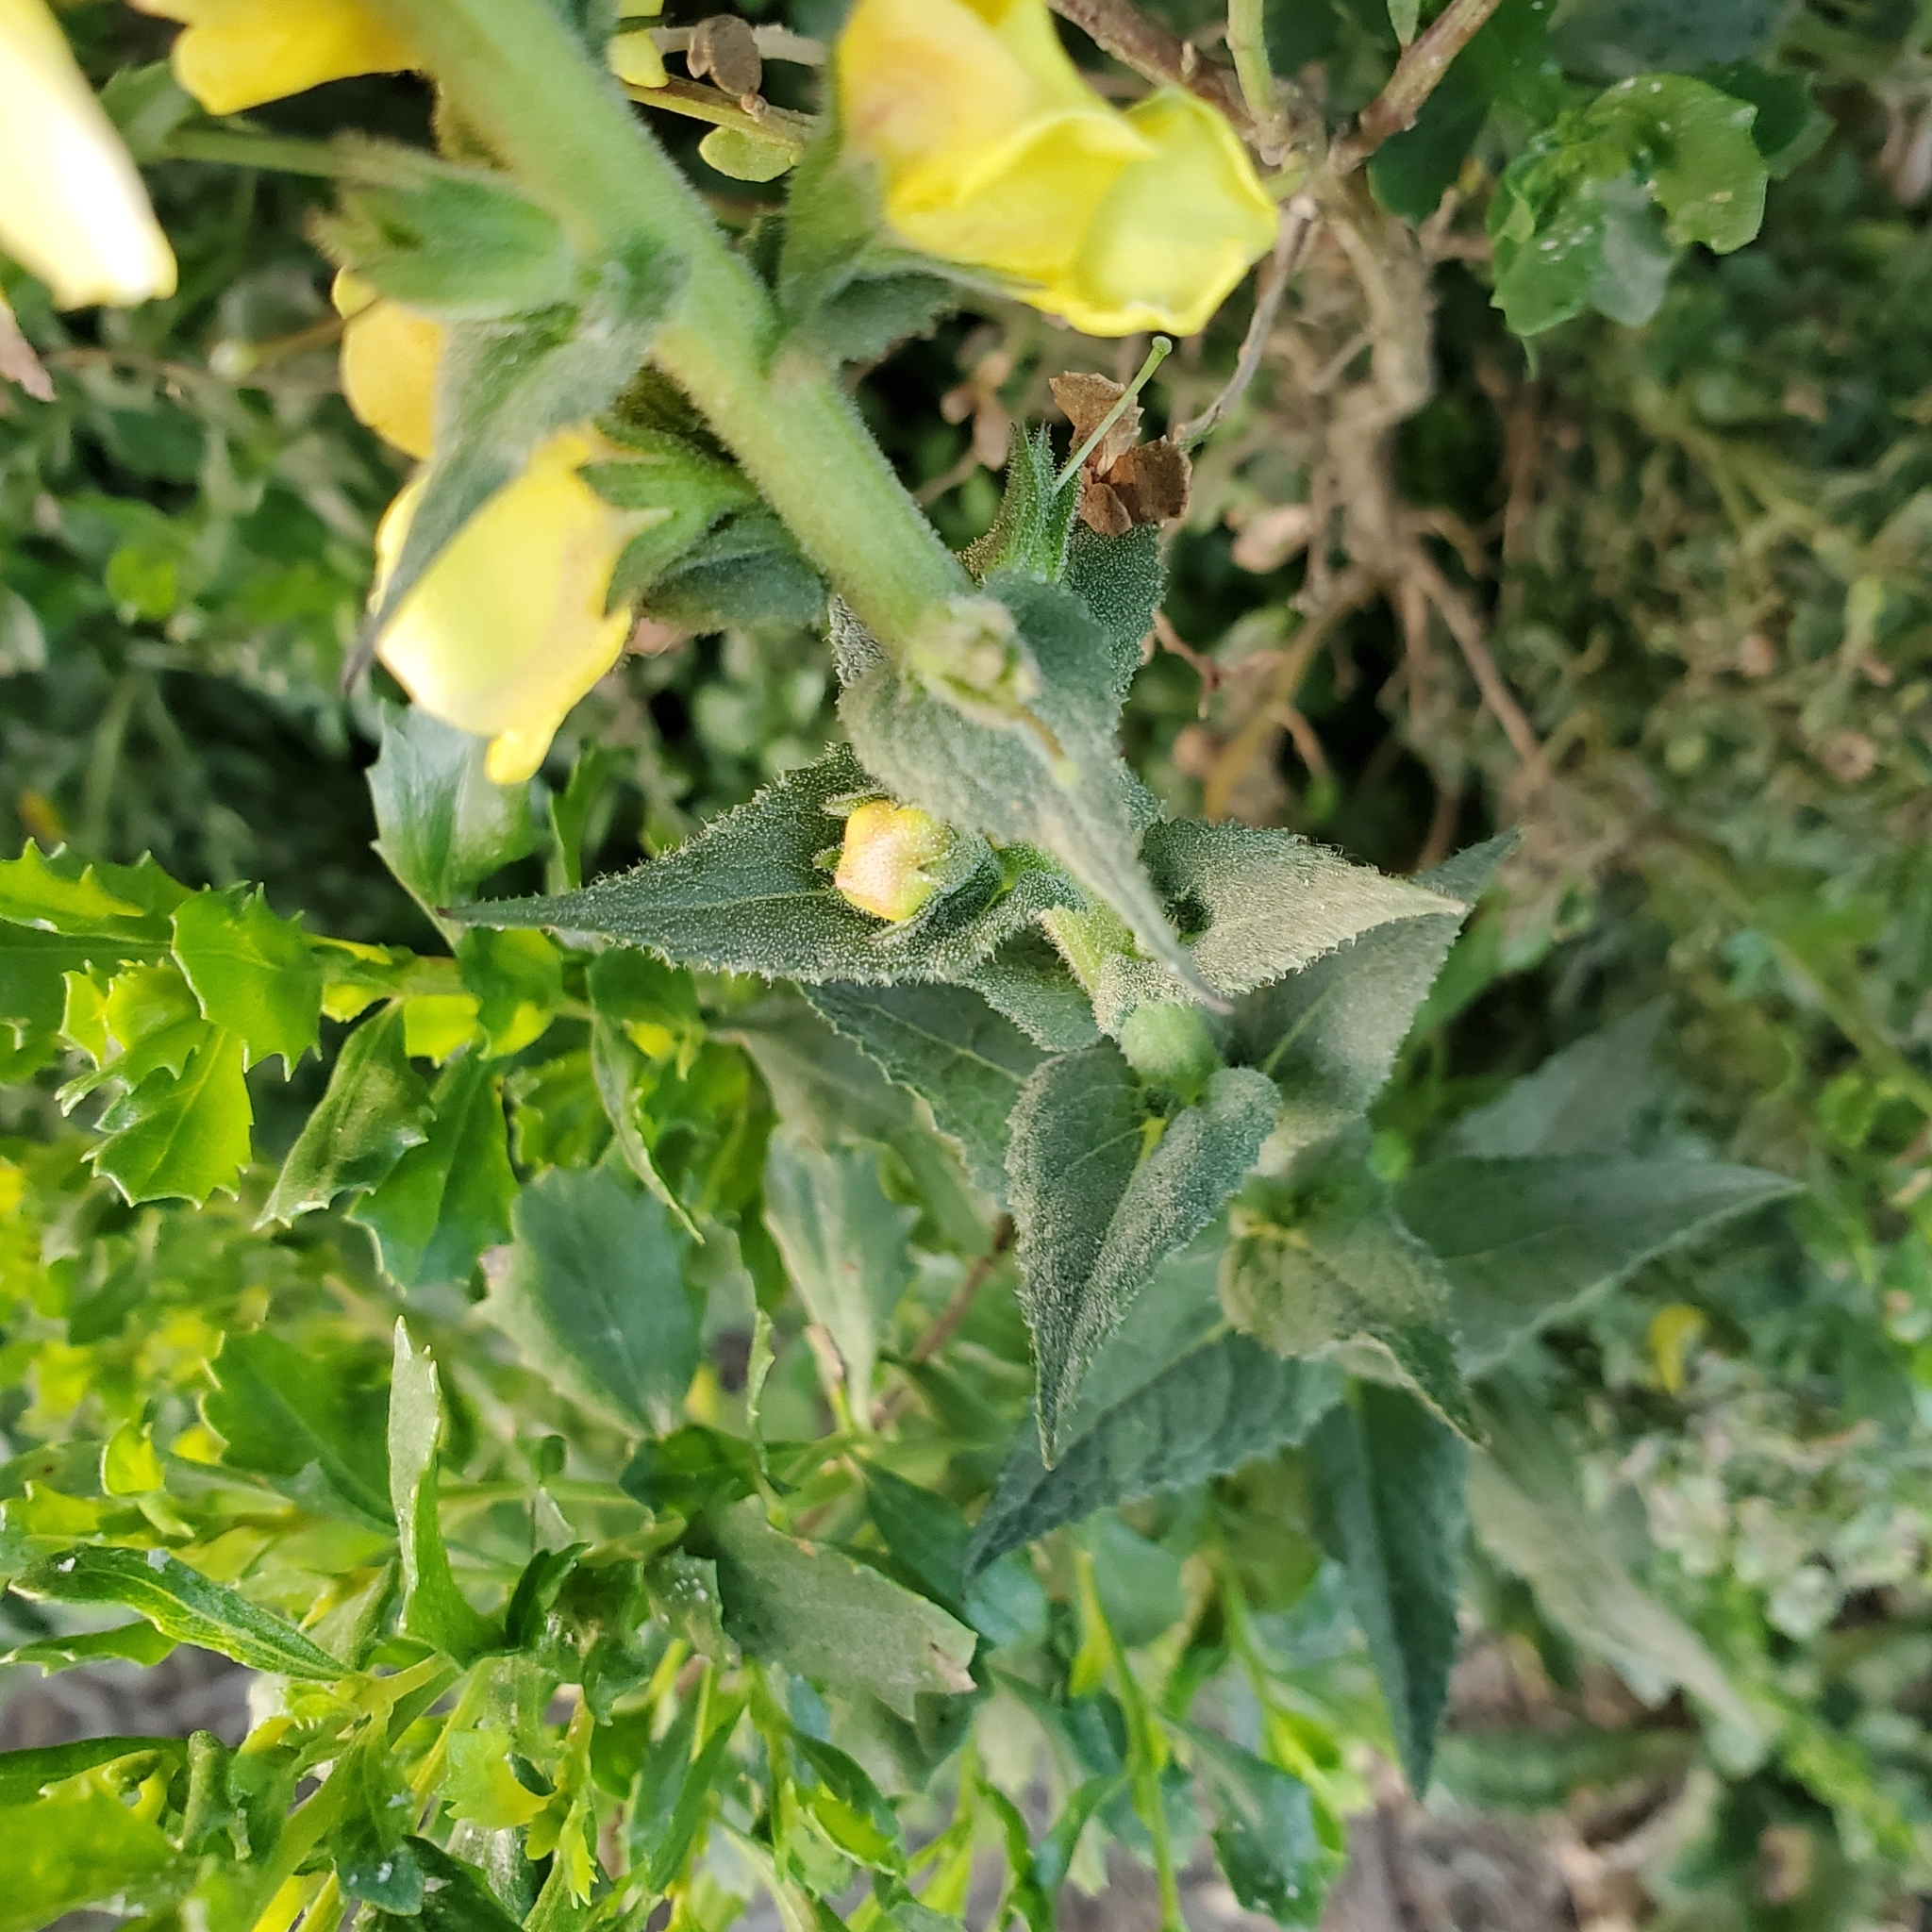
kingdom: Plantae
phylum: Tracheophyta
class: Magnoliopsida
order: Lamiales
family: Scrophulariaceae
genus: Verbascum
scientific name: Verbascum virgatum
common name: Twiggy mullein
